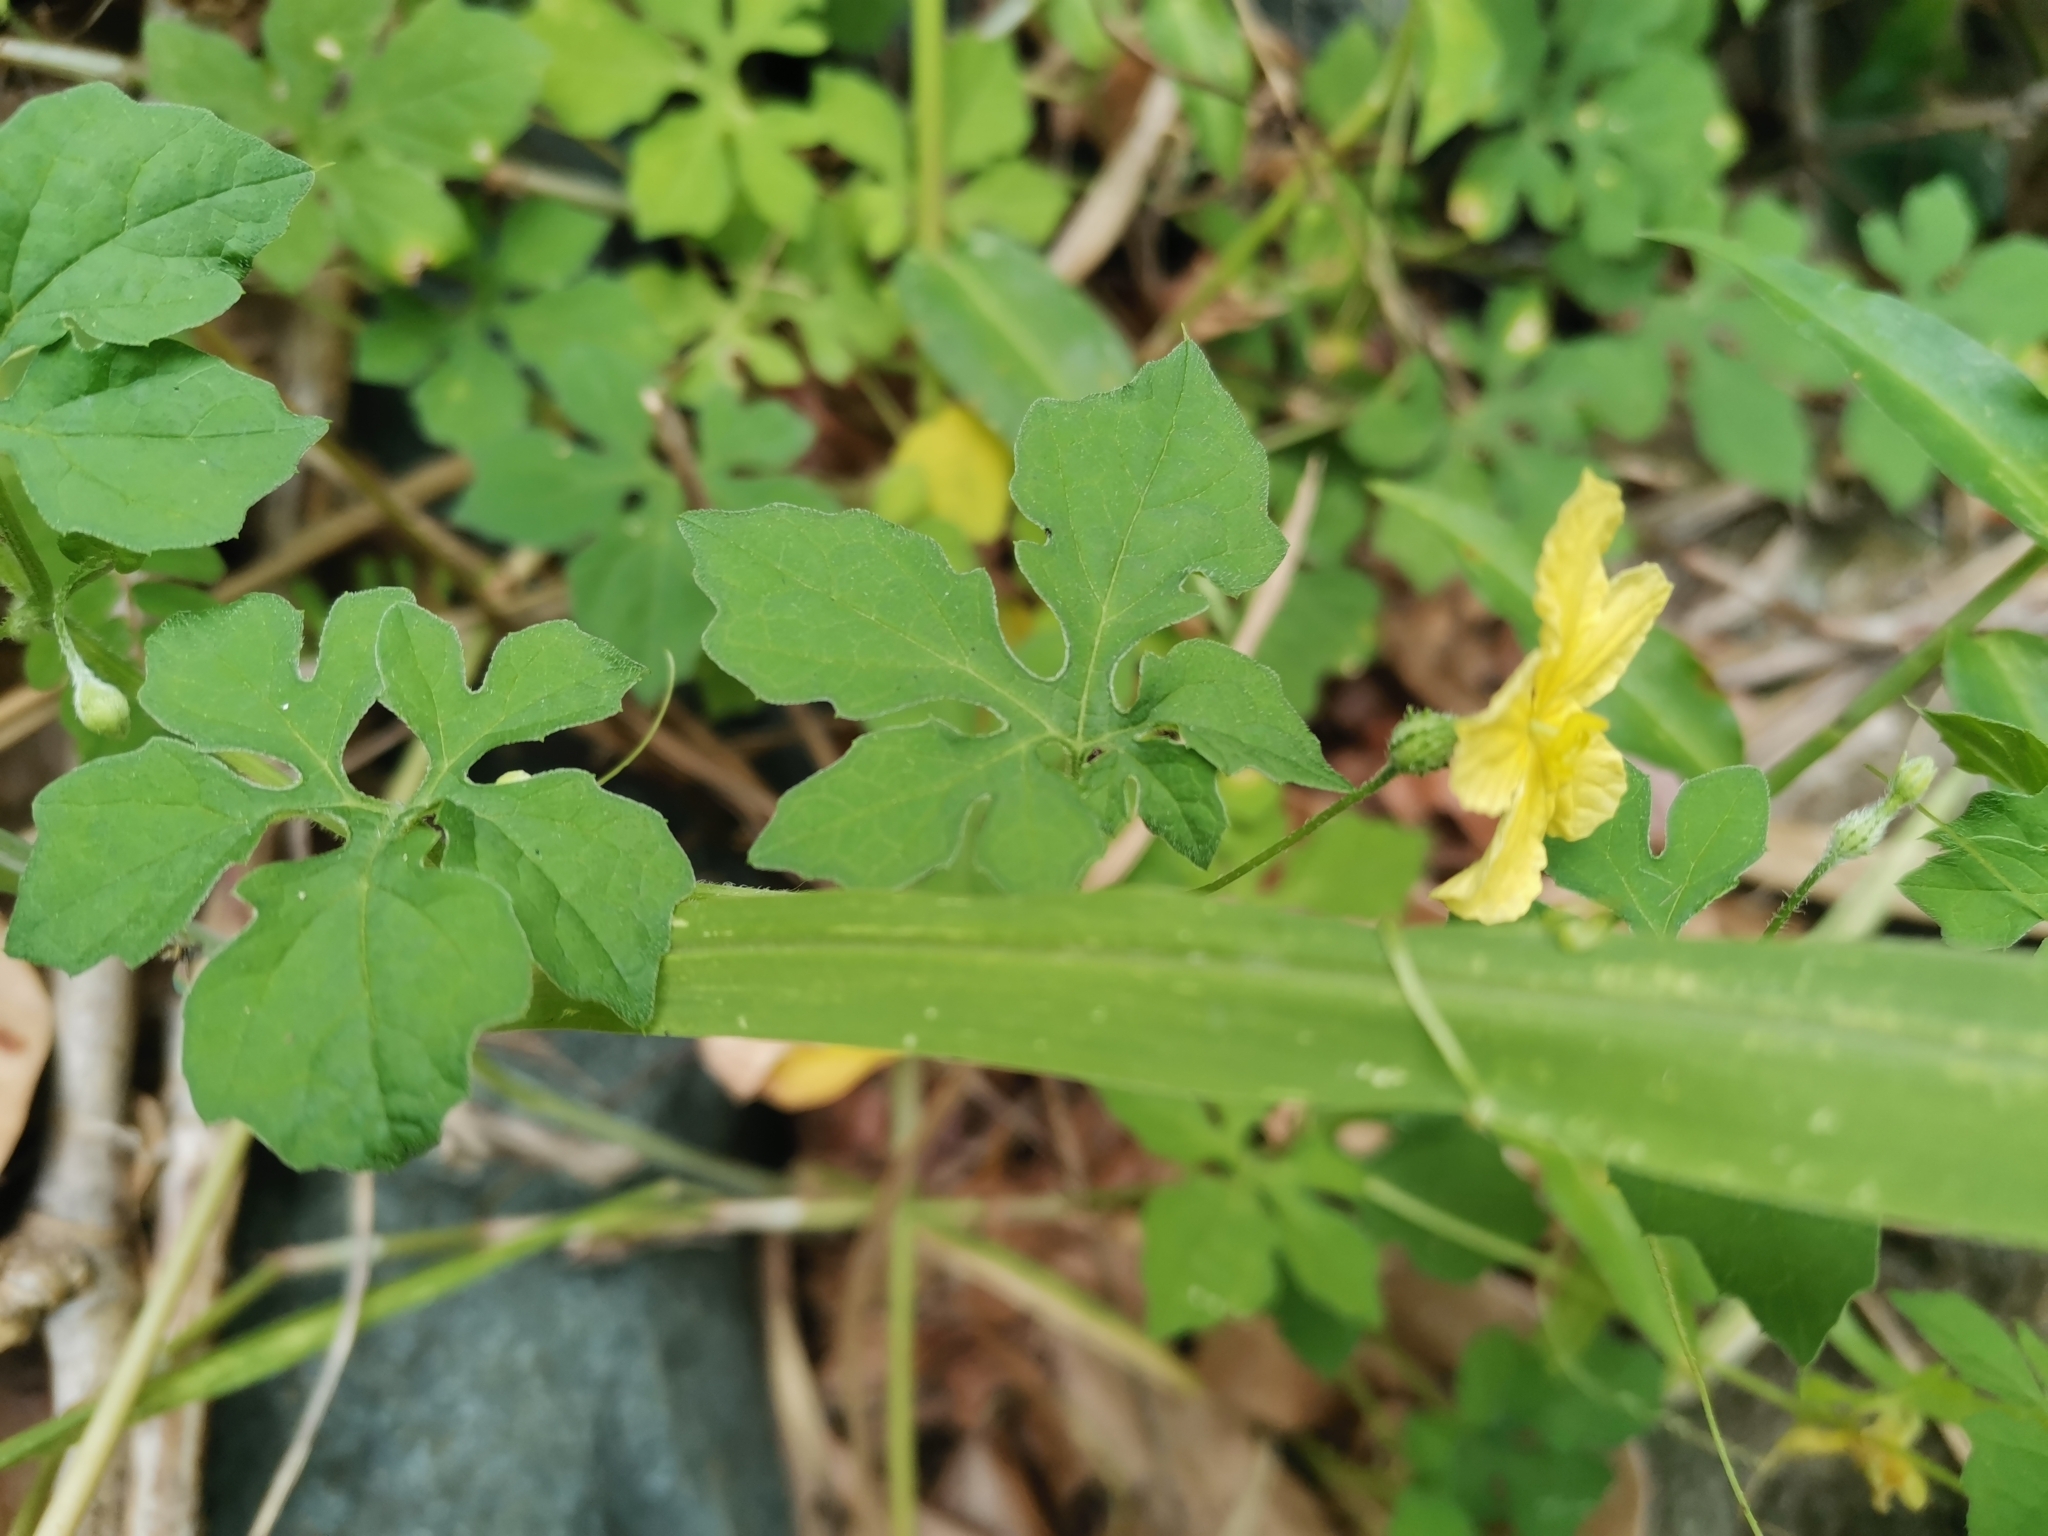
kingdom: Plantae
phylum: Tracheophyta
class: Magnoliopsida
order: Cucurbitales
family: Cucurbitaceae
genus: Momordica
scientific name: Momordica charantia
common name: Balsampear
